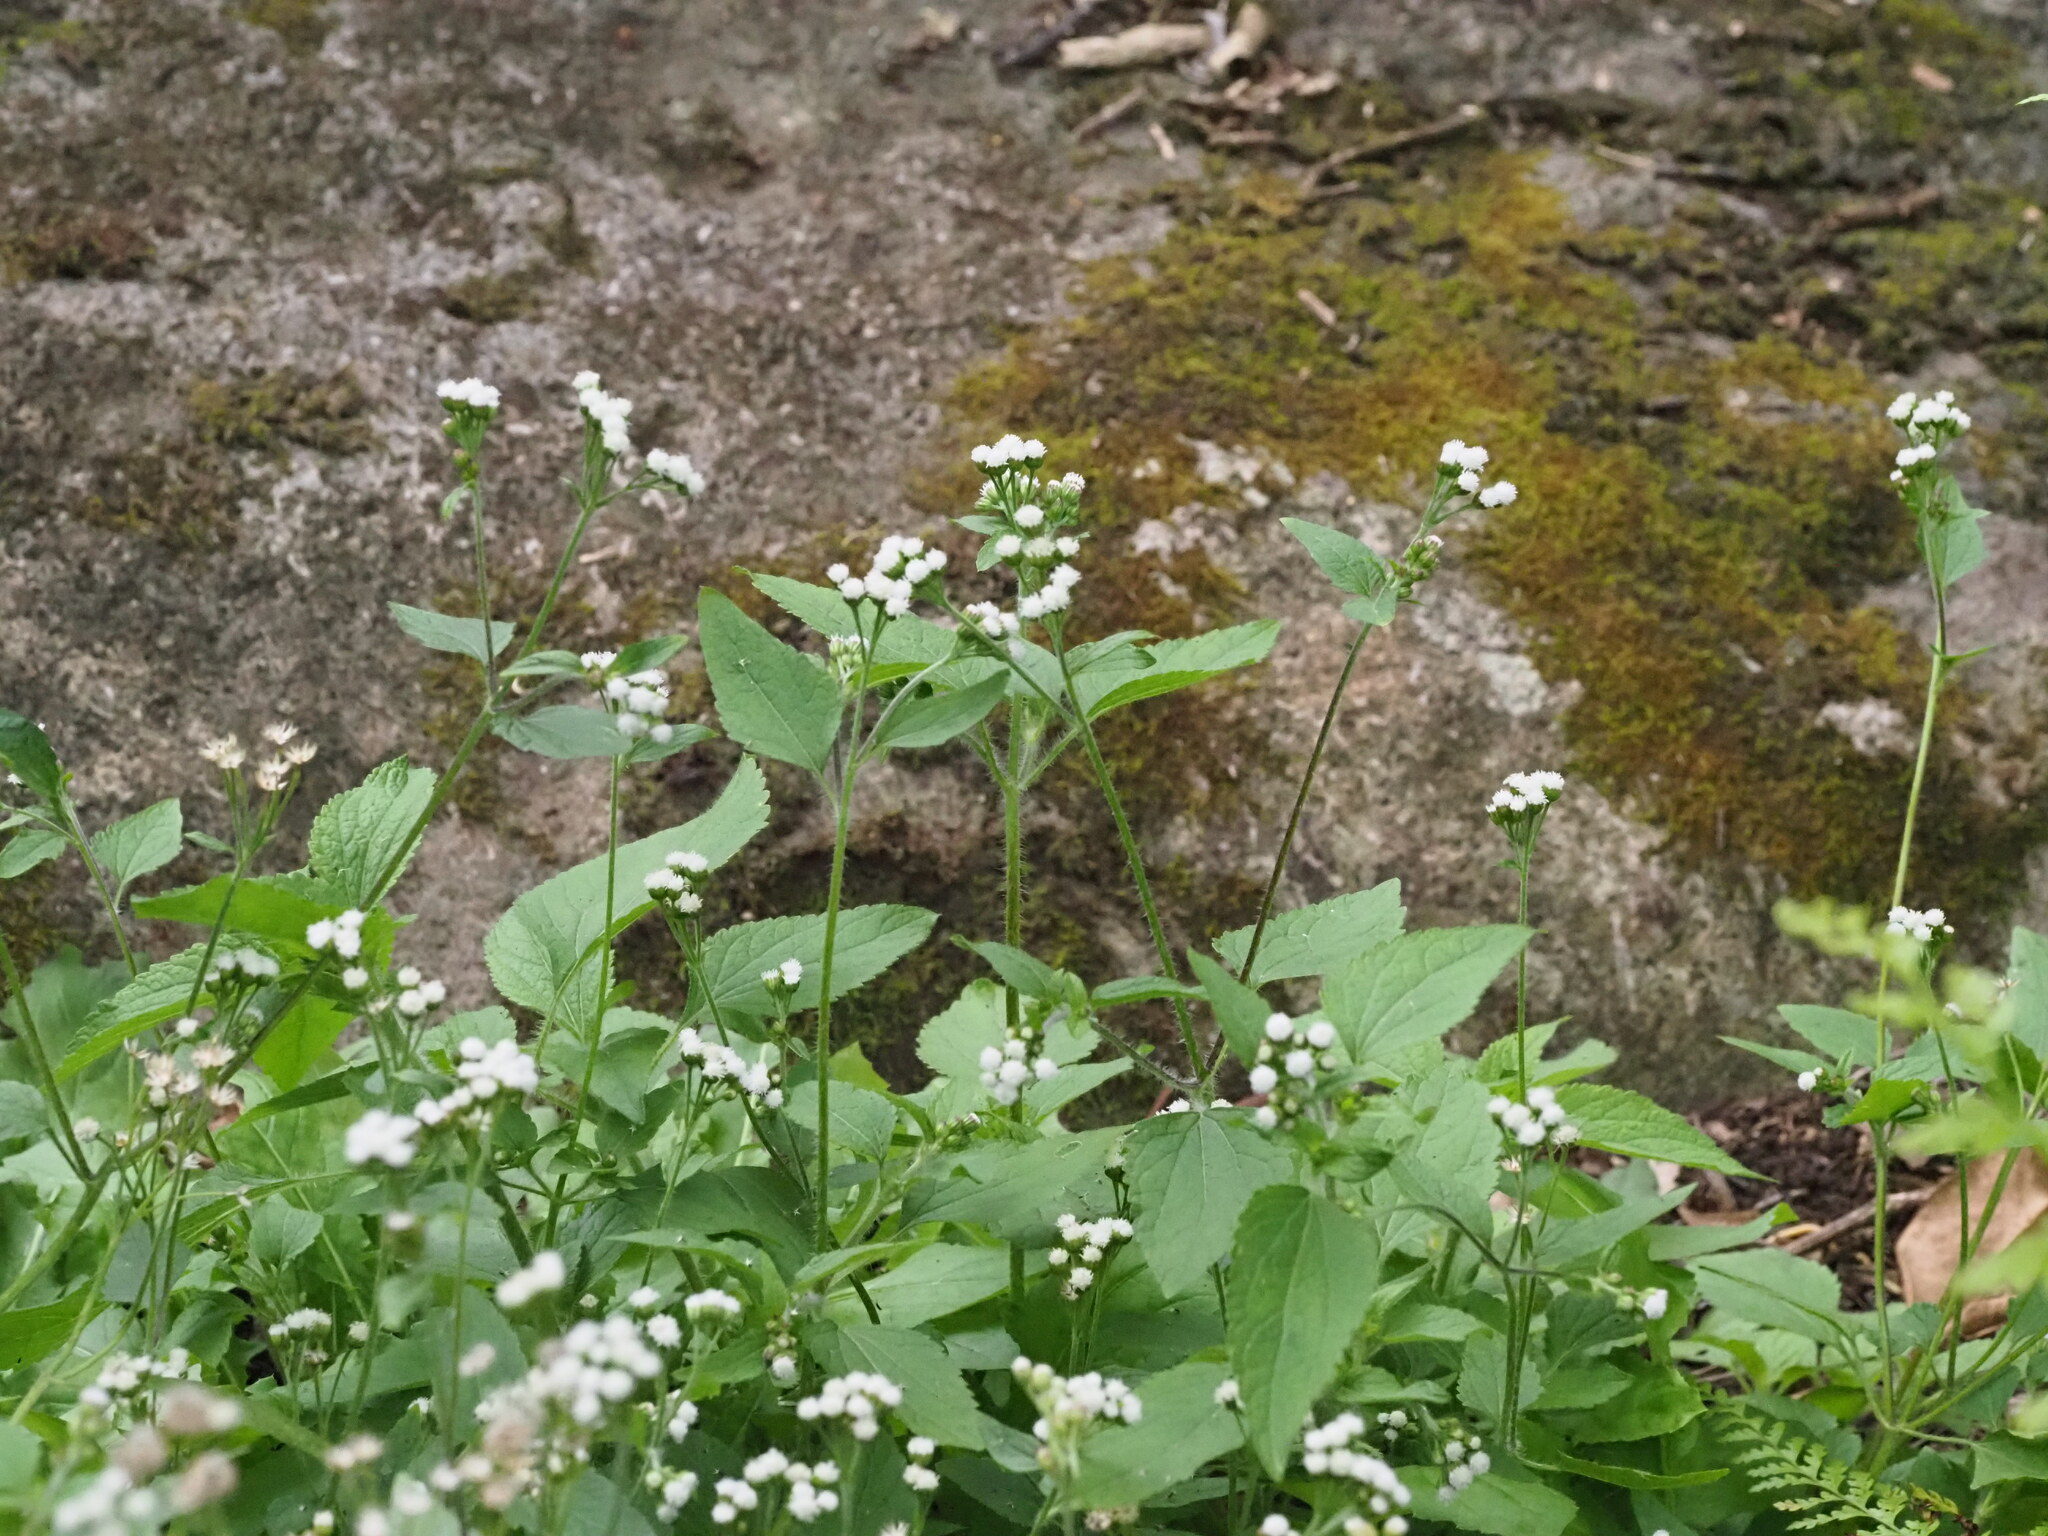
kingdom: Plantae
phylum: Tracheophyta
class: Magnoliopsida
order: Asterales
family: Asteraceae
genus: Ageratum
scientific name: Ageratum conyzoides
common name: Tropical whiteweed
